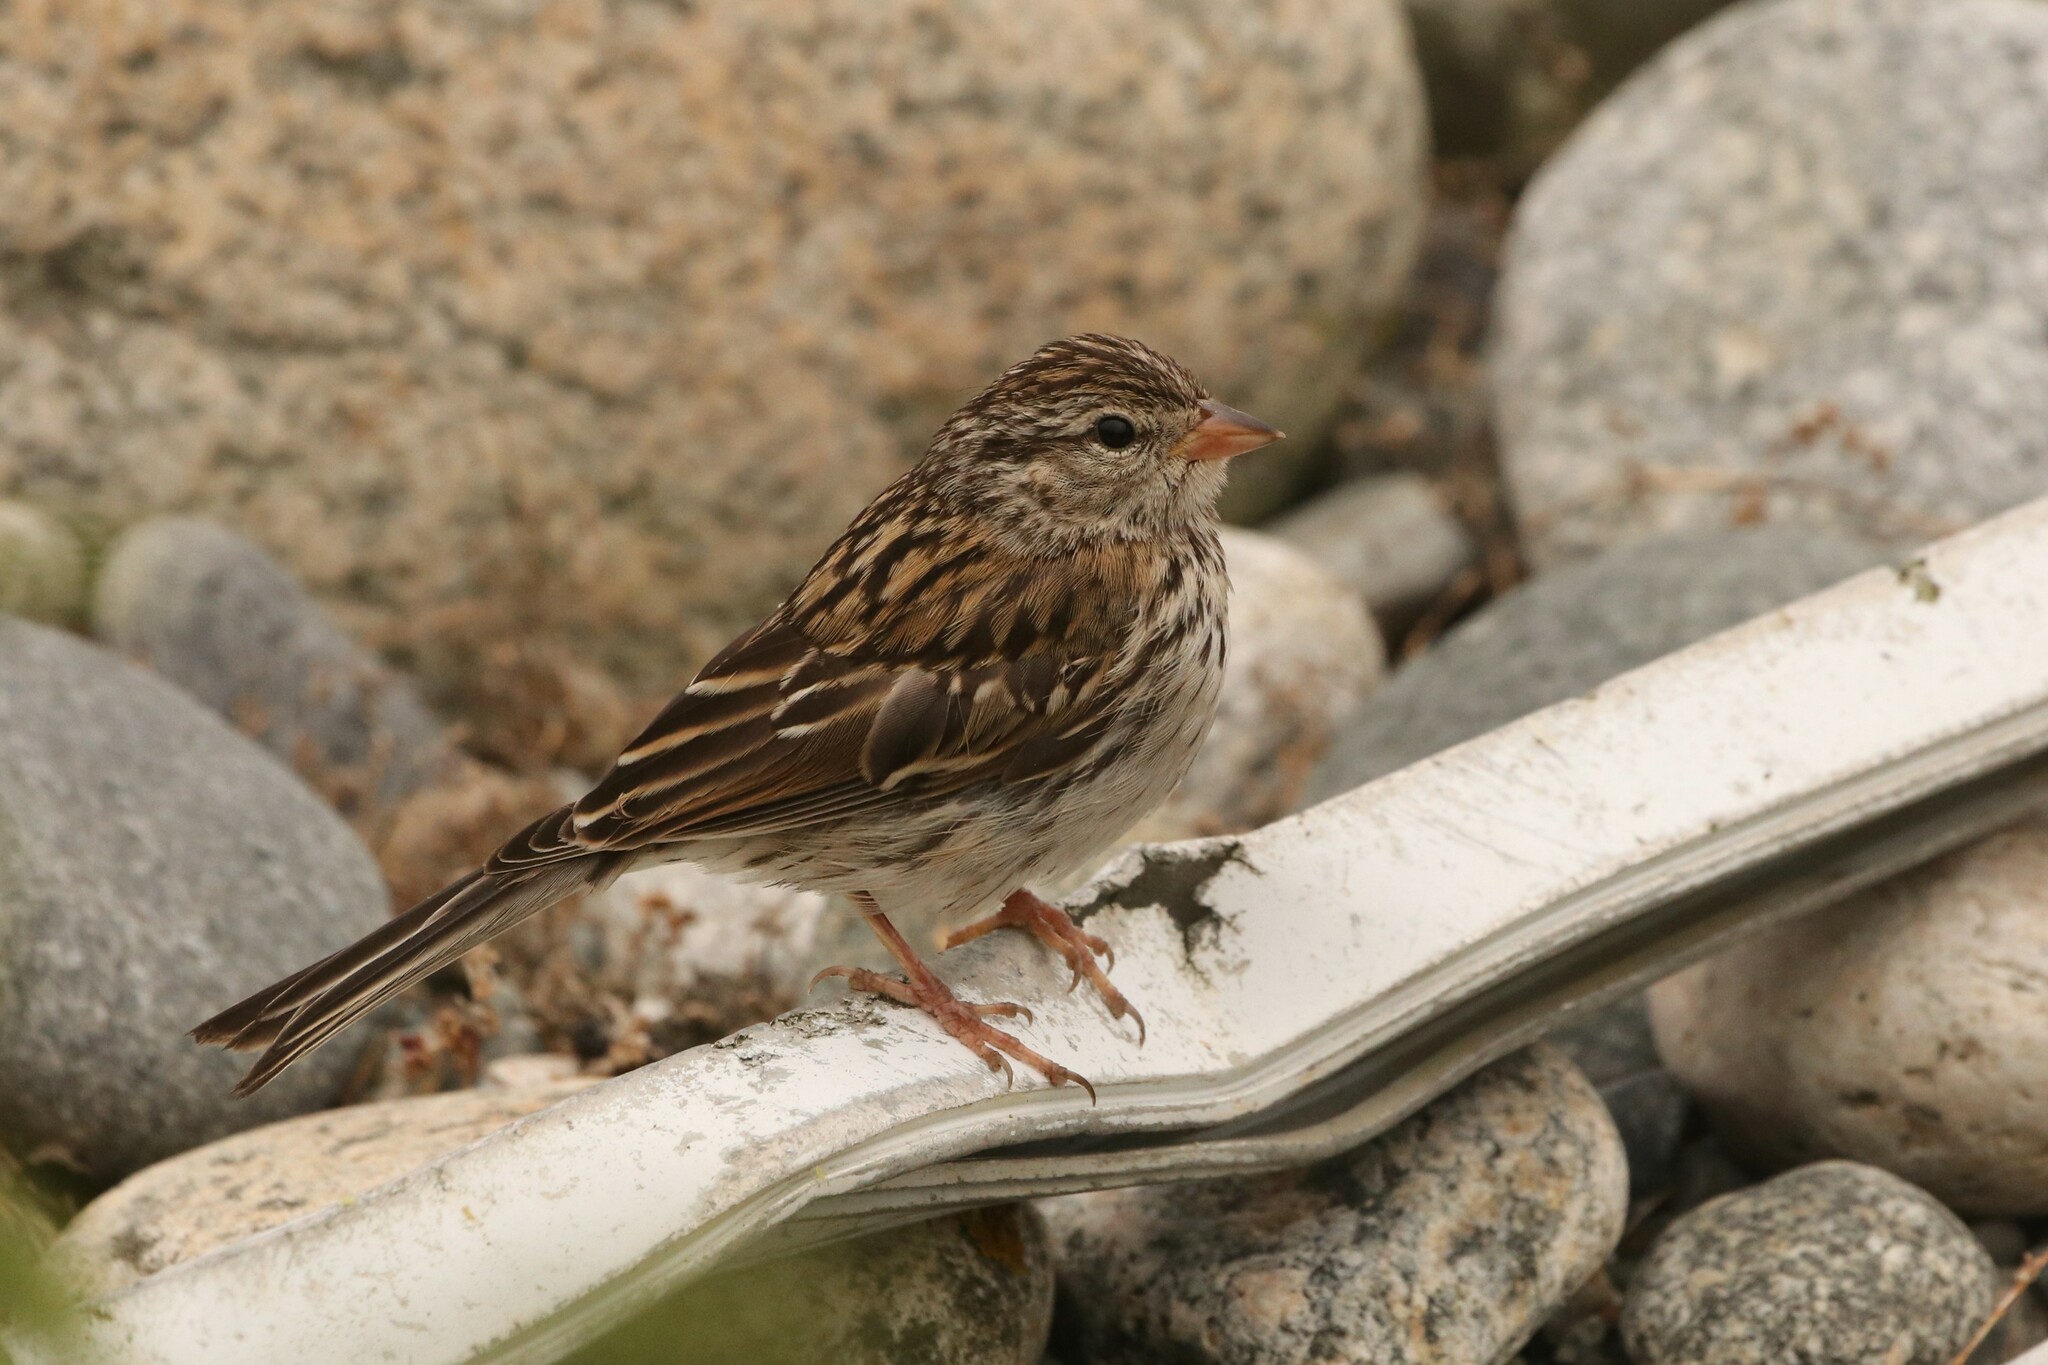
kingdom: Animalia
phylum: Chordata
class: Aves
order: Passeriformes
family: Passerellidae
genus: Spizella
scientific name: Spizella passerina
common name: Chipping sparrow
